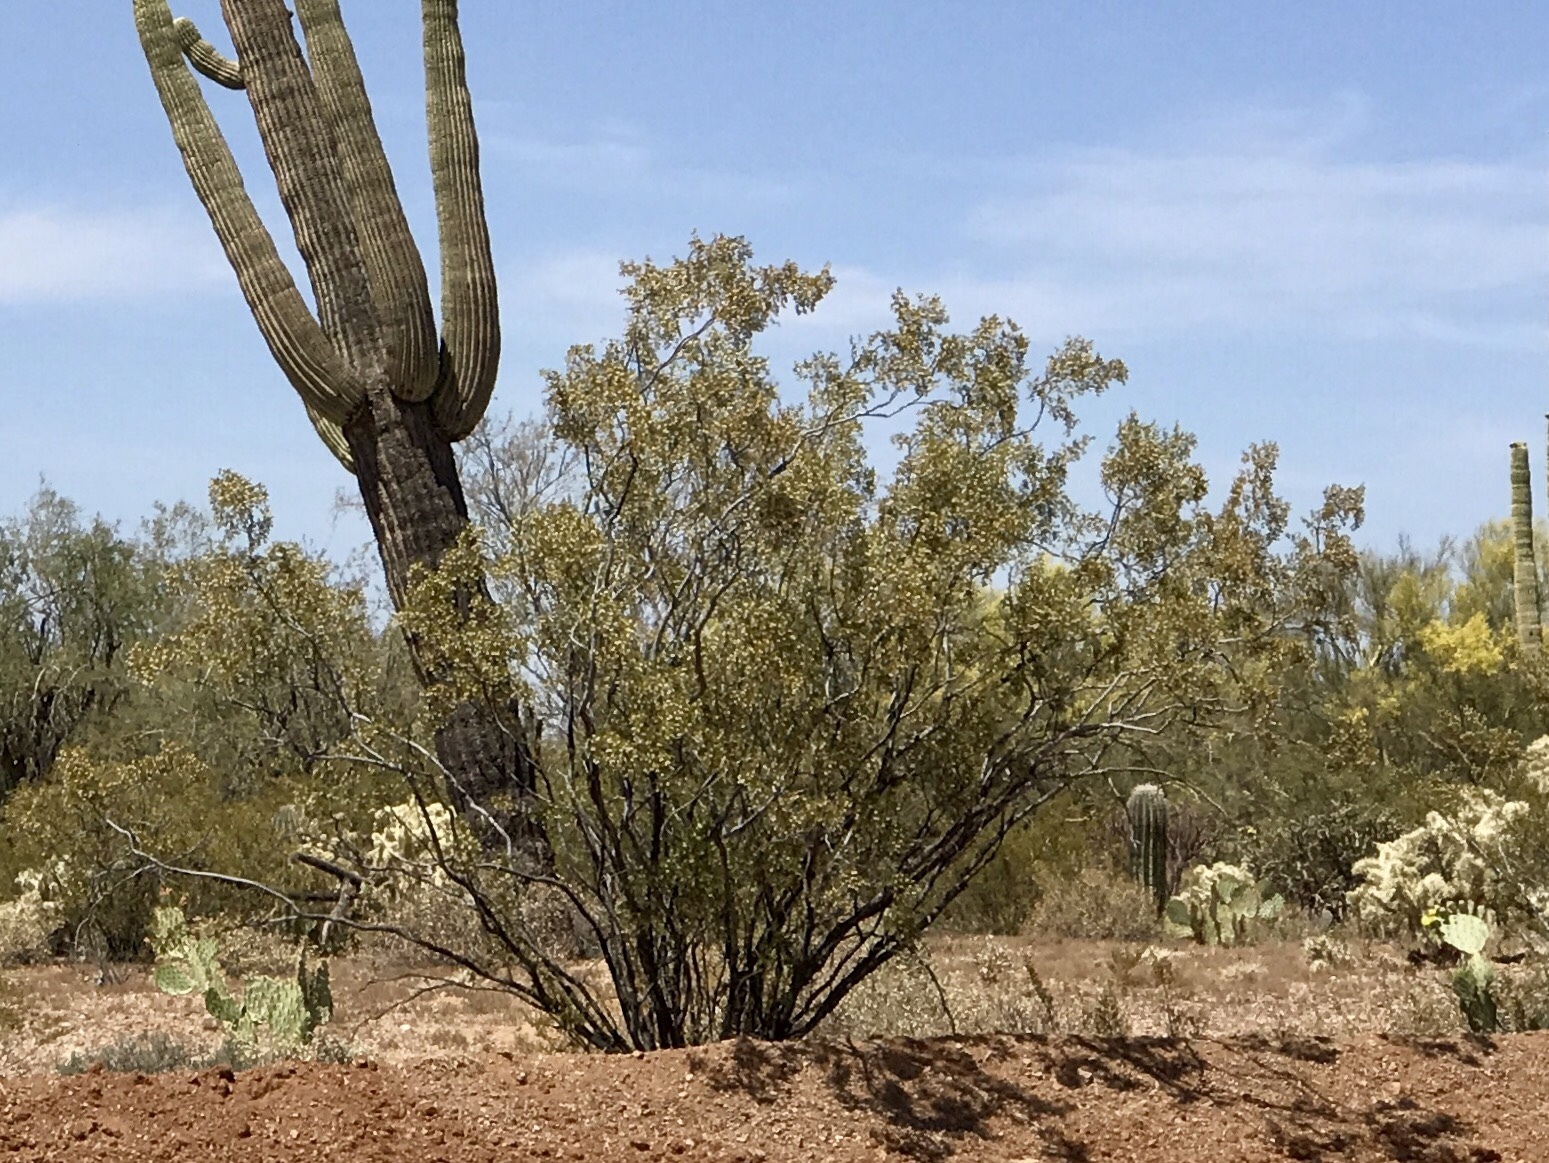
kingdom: Plantae
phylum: Tracheophyta
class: Magnoliopsida
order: Zygophyllales
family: Zygophyllaceae
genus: Larrea
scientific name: Larrea tridentata
